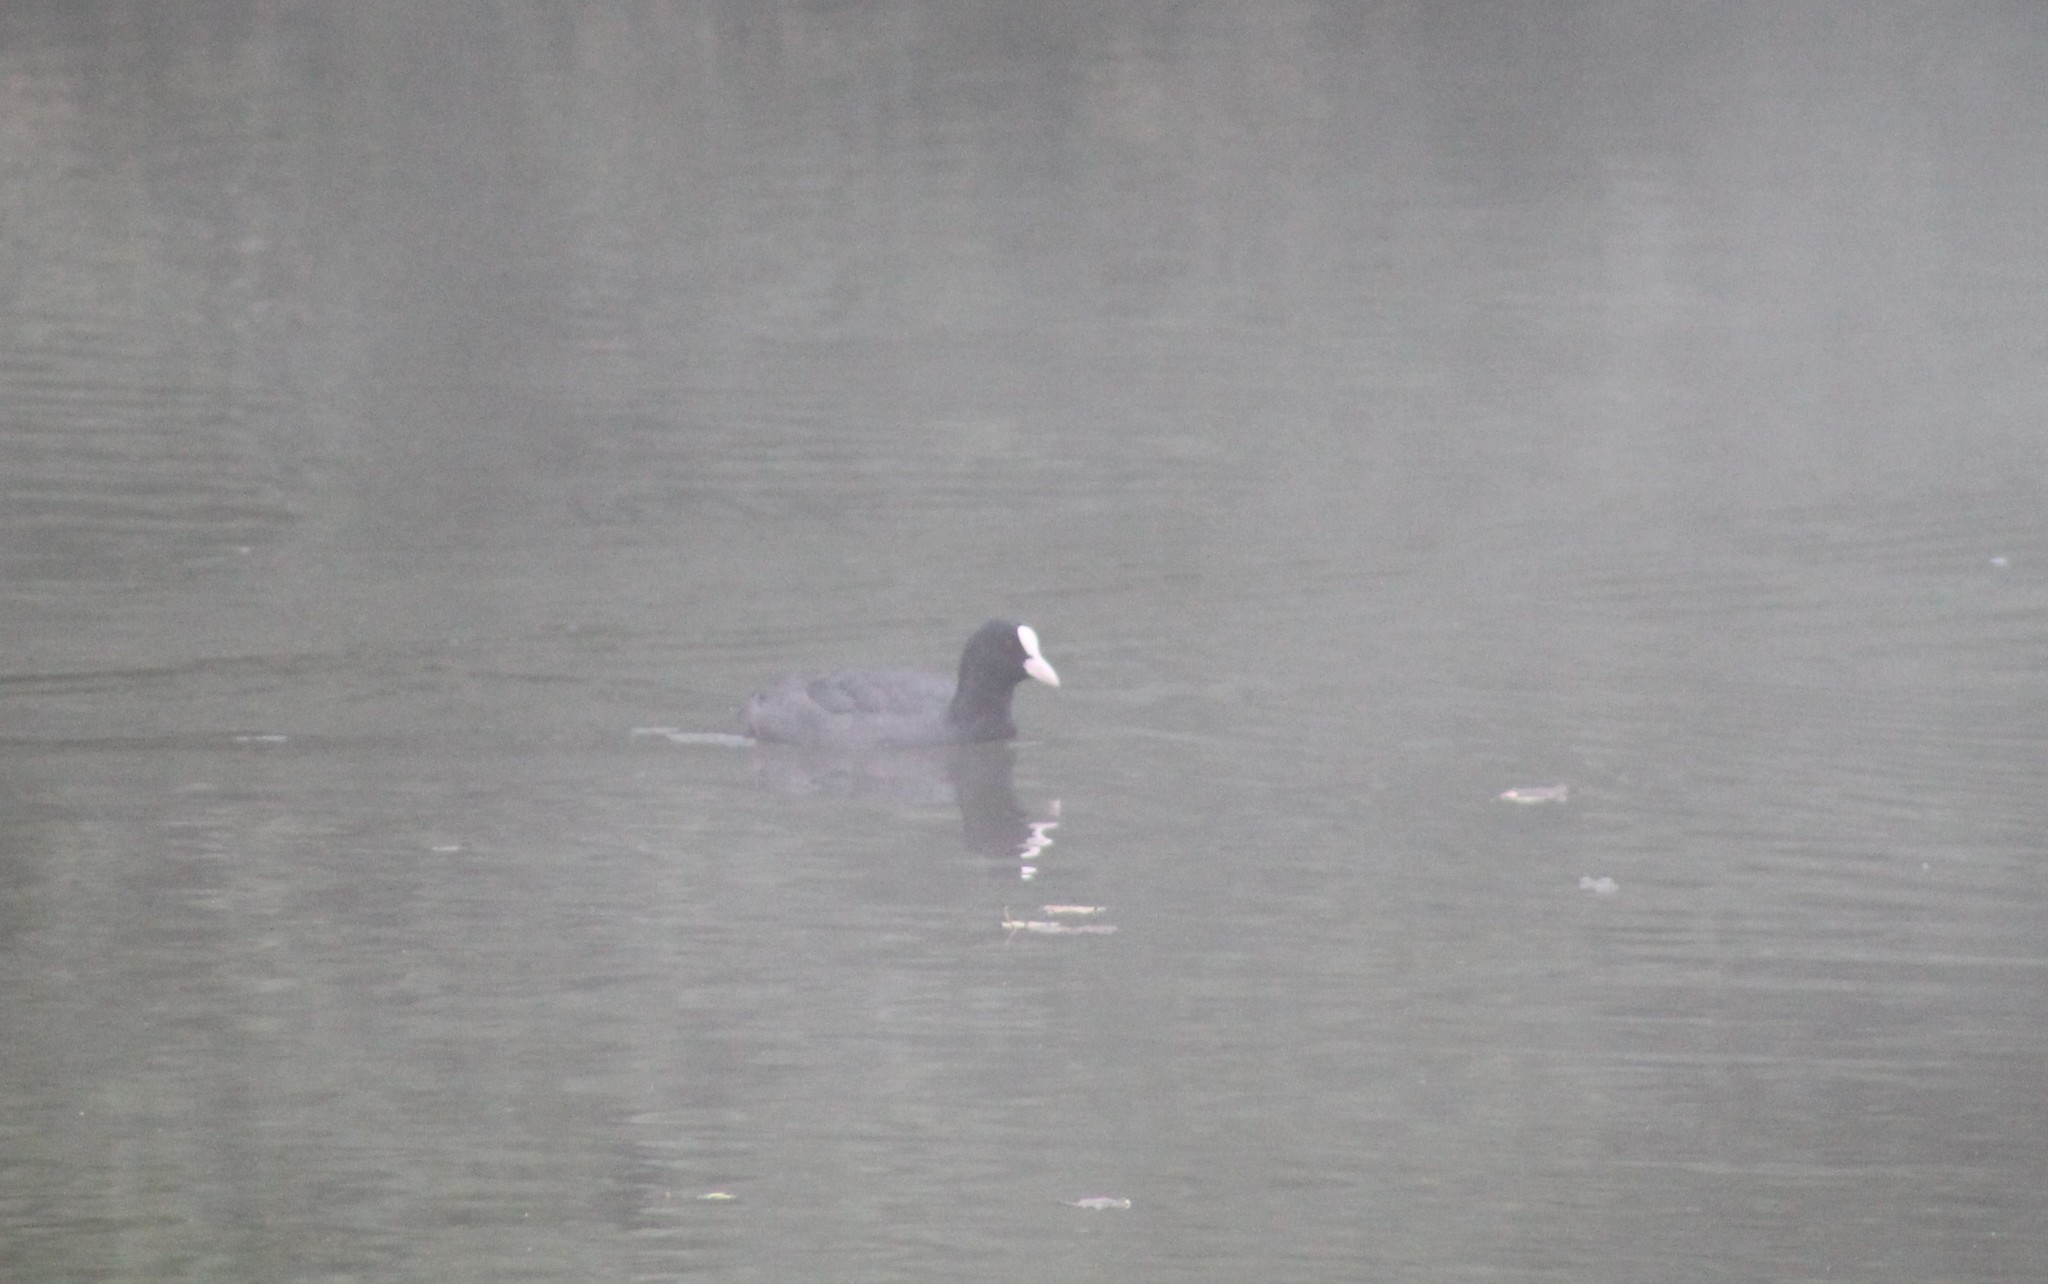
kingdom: Animalia
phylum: Chordata
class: Aves
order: Gruiformes
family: Rallidae
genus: Fulica
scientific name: Fulica atra
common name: Eurasian coot
